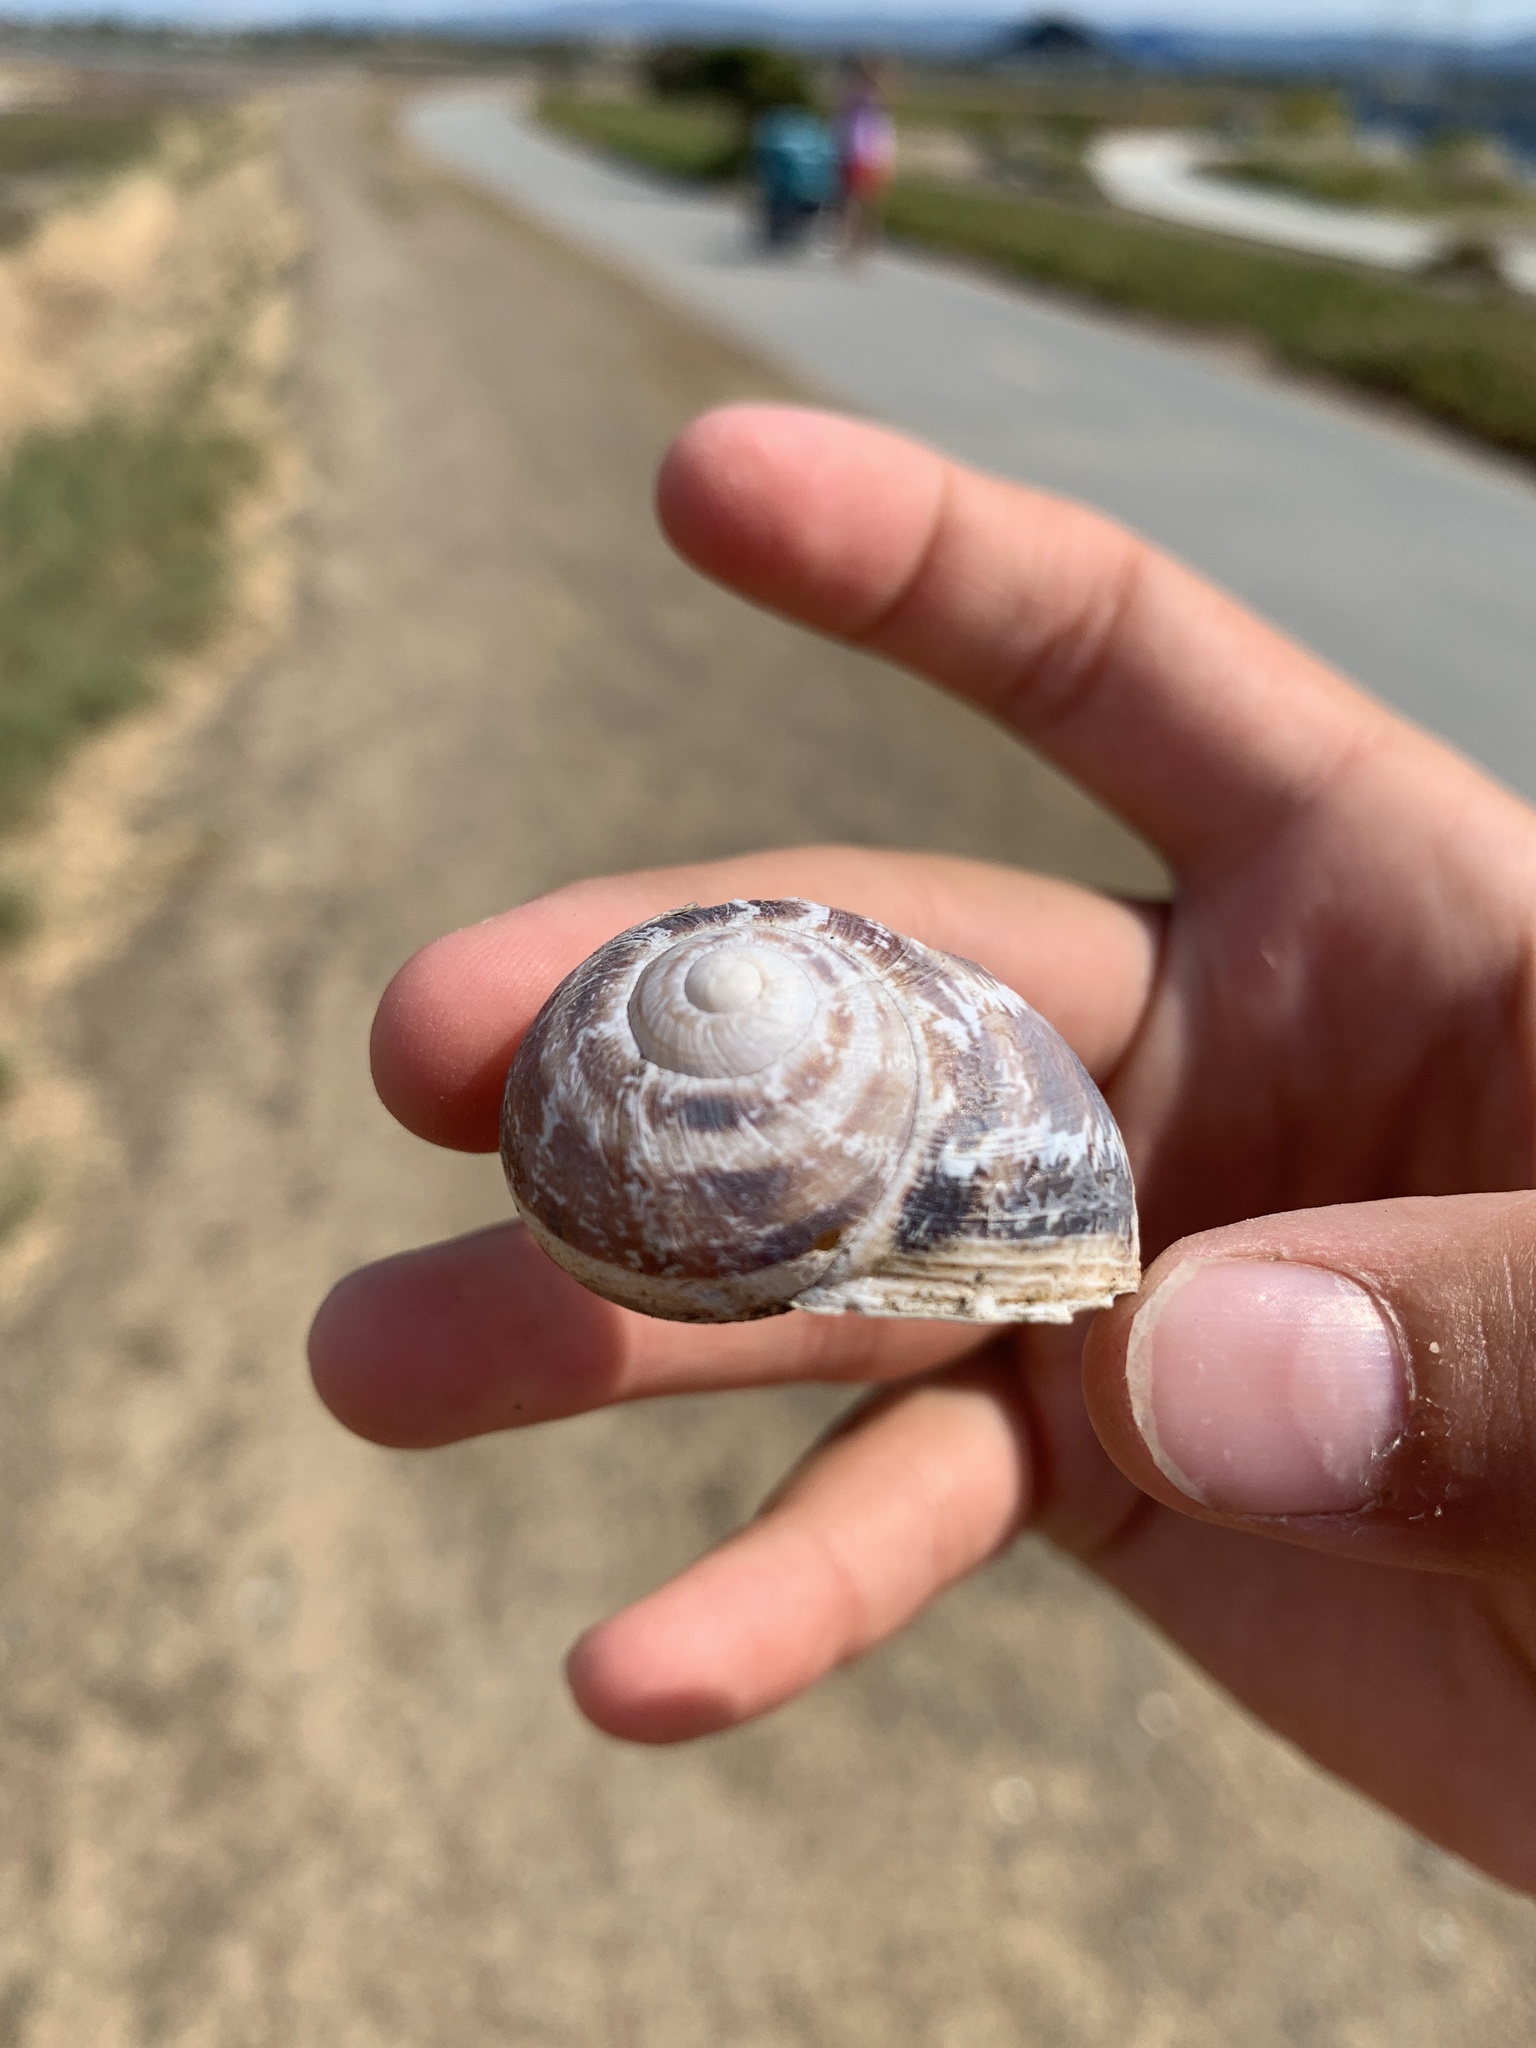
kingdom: Animalia
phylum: Mollusca
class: Gastropoda
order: Stylommatophora
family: Helicidae
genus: Cornu
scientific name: Cornu aspersum
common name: Brown garden snail
